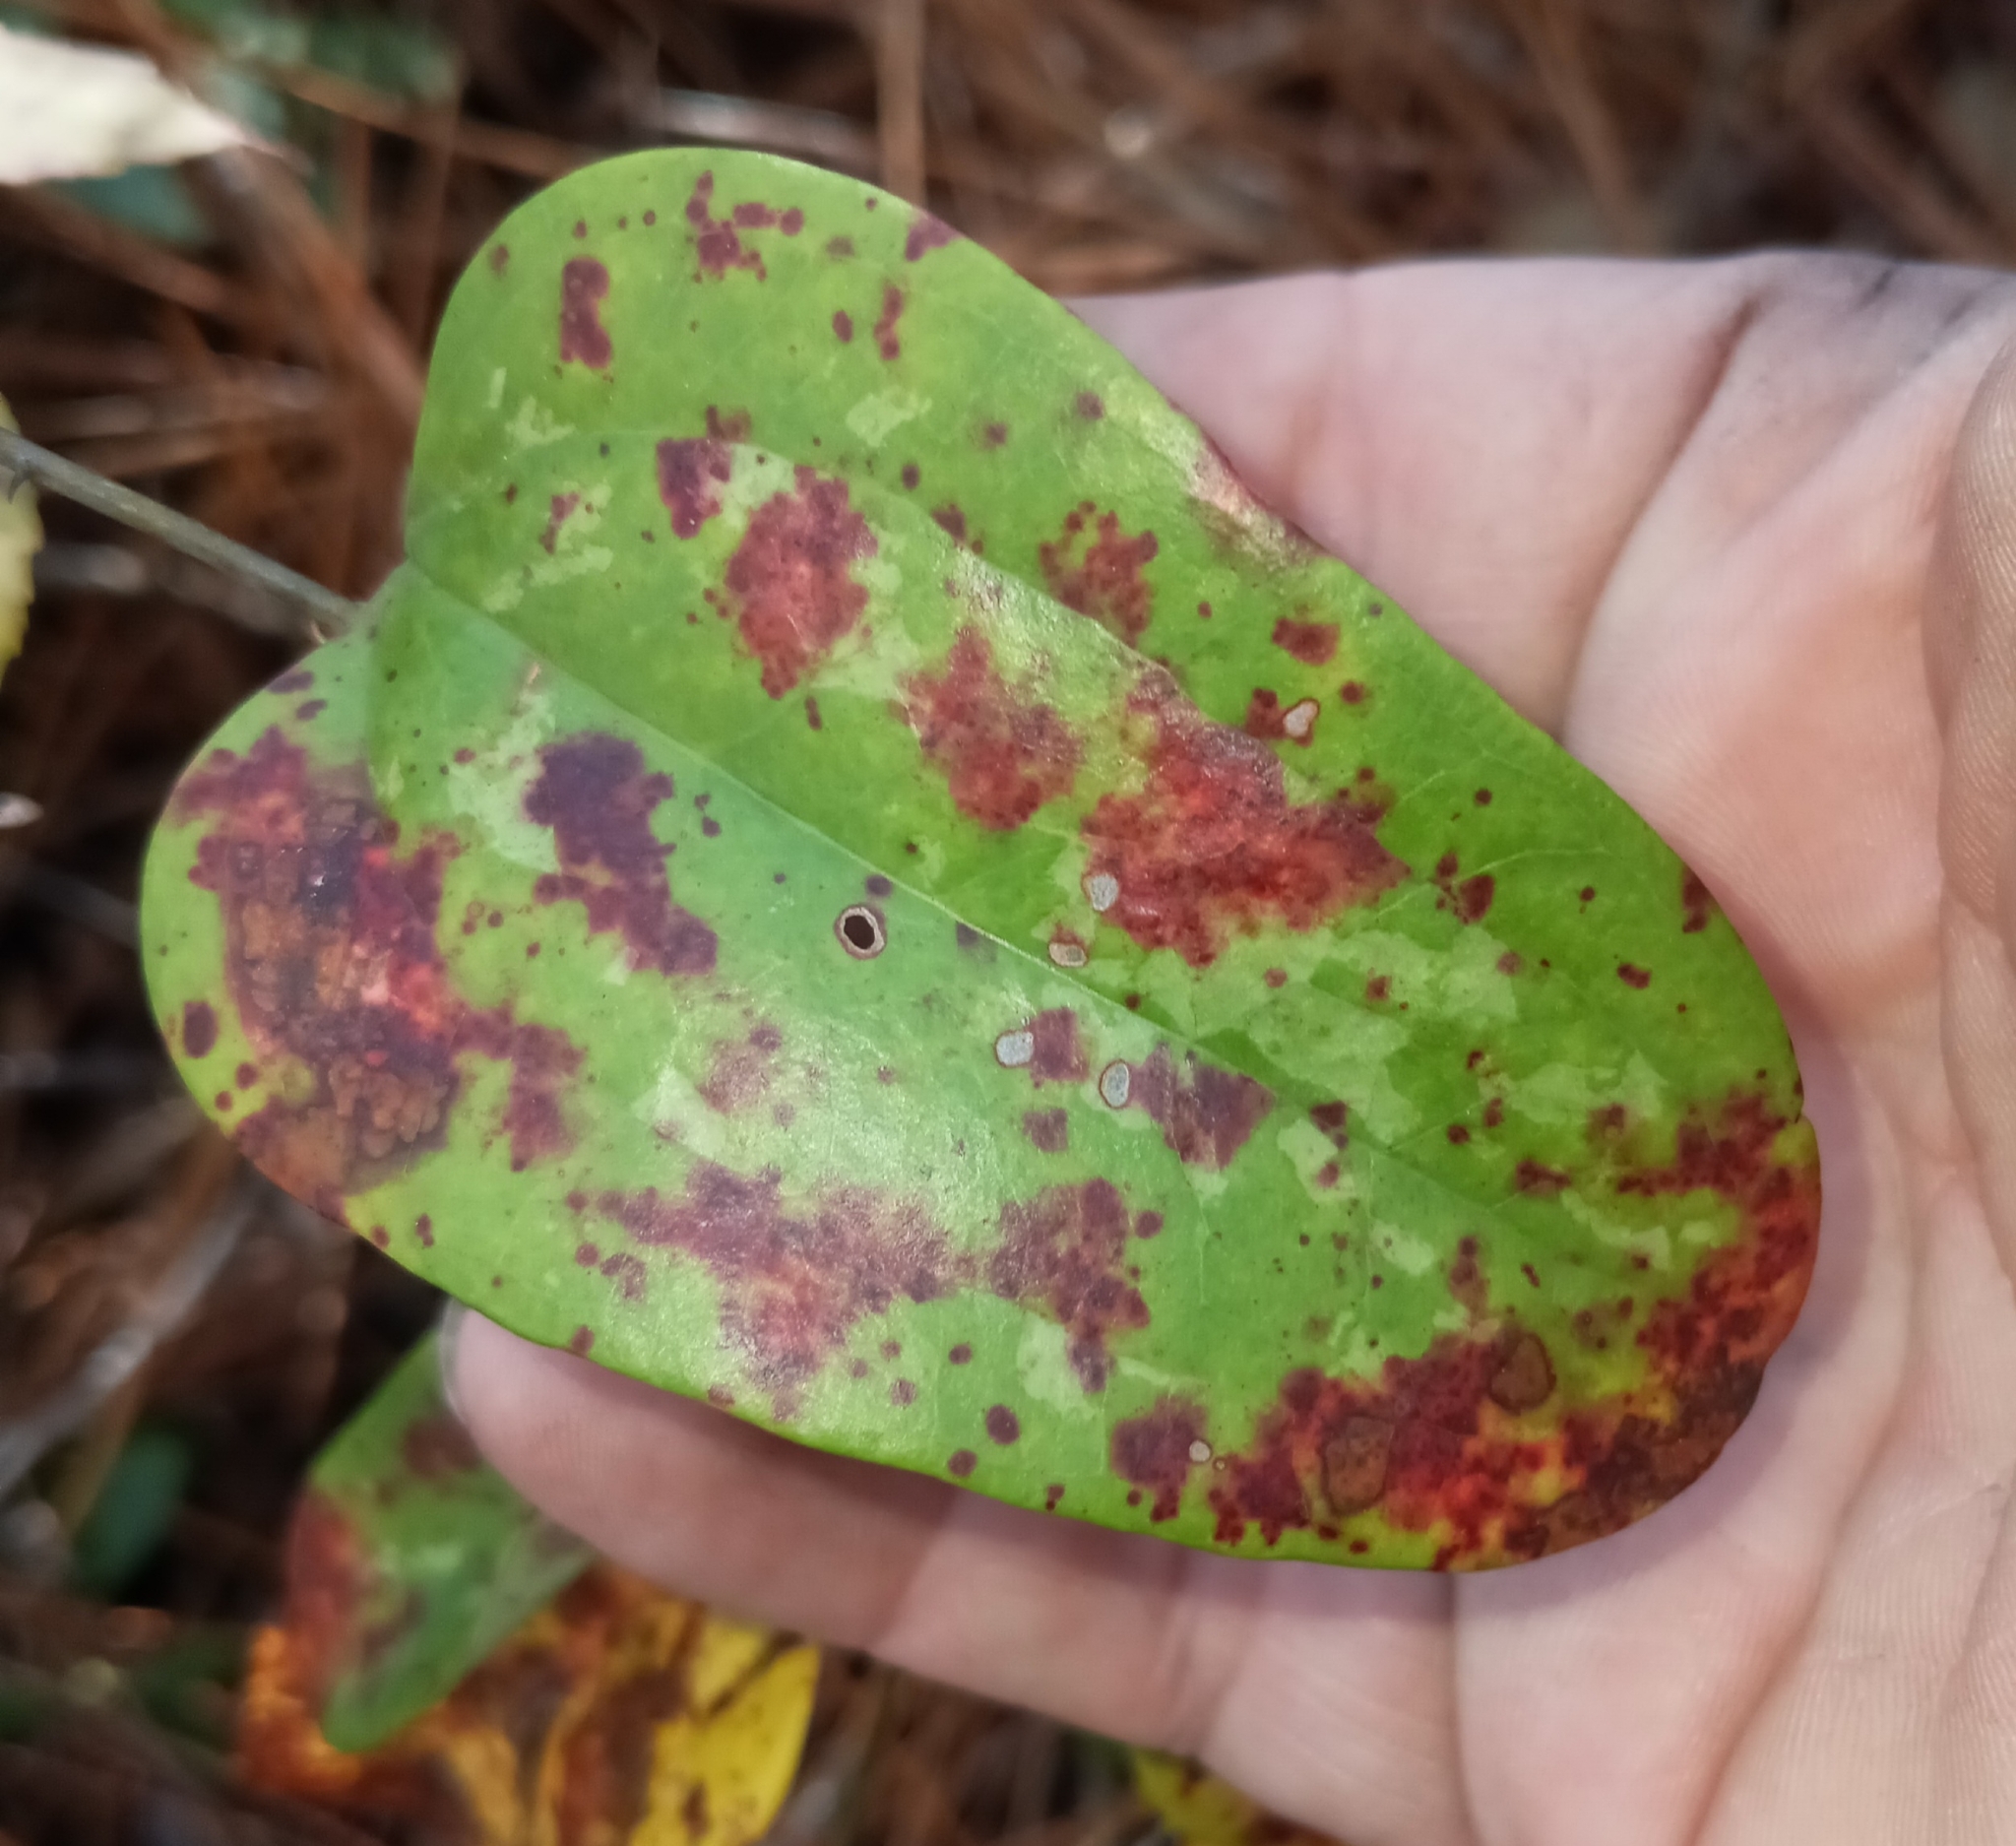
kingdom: Plantae
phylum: Tracheophyta
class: Liliopsida
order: Liliales
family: Smilacaceae
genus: Smilax
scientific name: Smilax glauca
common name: Cat greenbrier
